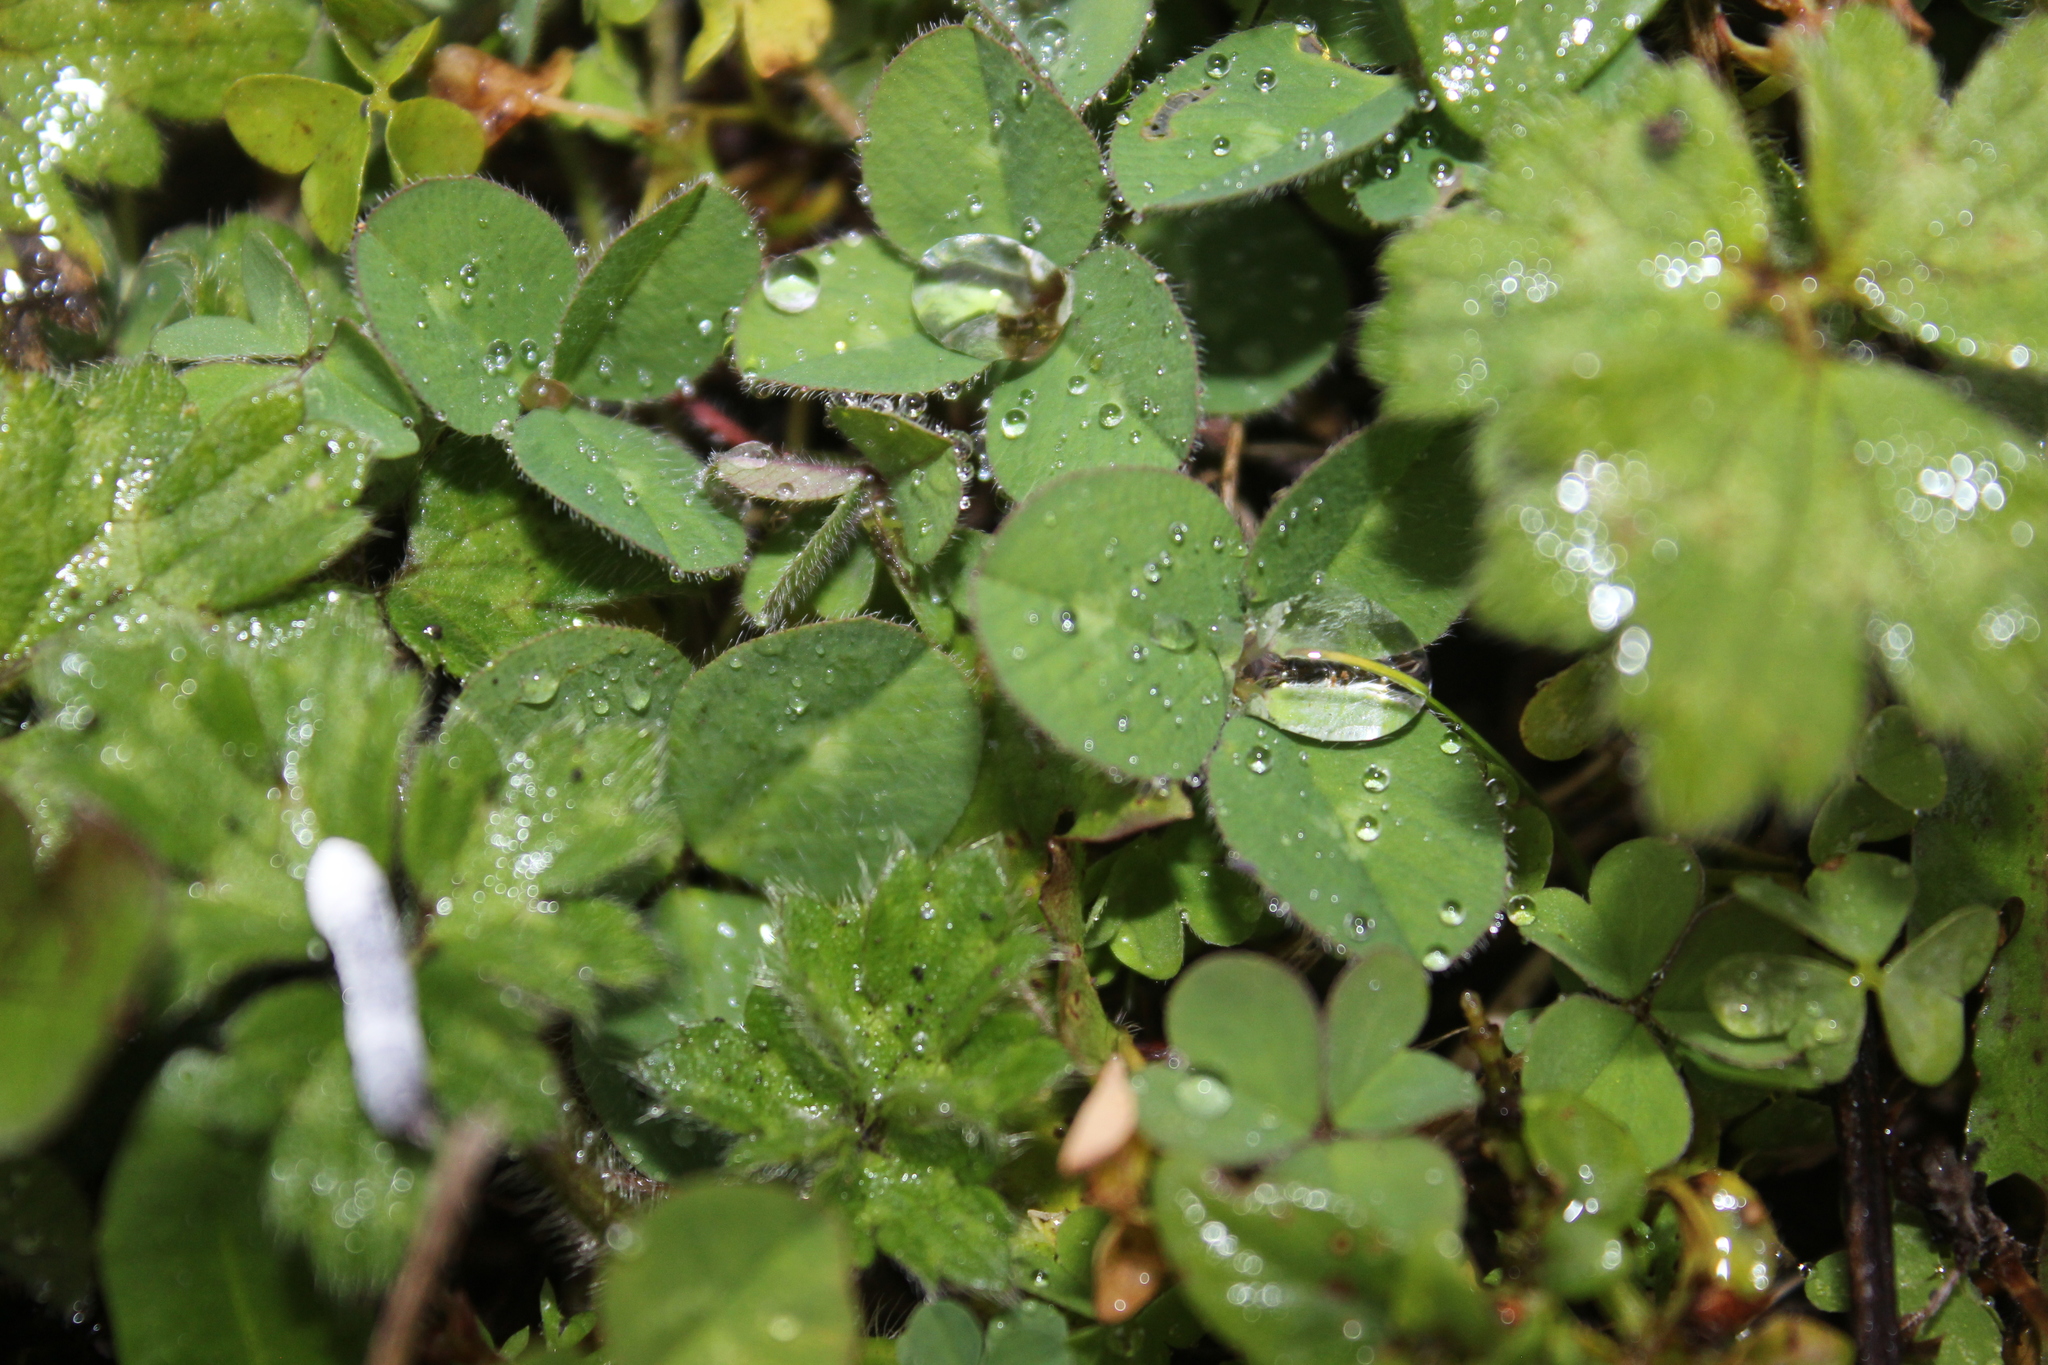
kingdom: Plantae
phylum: Tracheophyta
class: Magnoliopsida
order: Fabales
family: Fabaceae
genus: Trifolium
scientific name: Trifolium pratense
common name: Red clover
